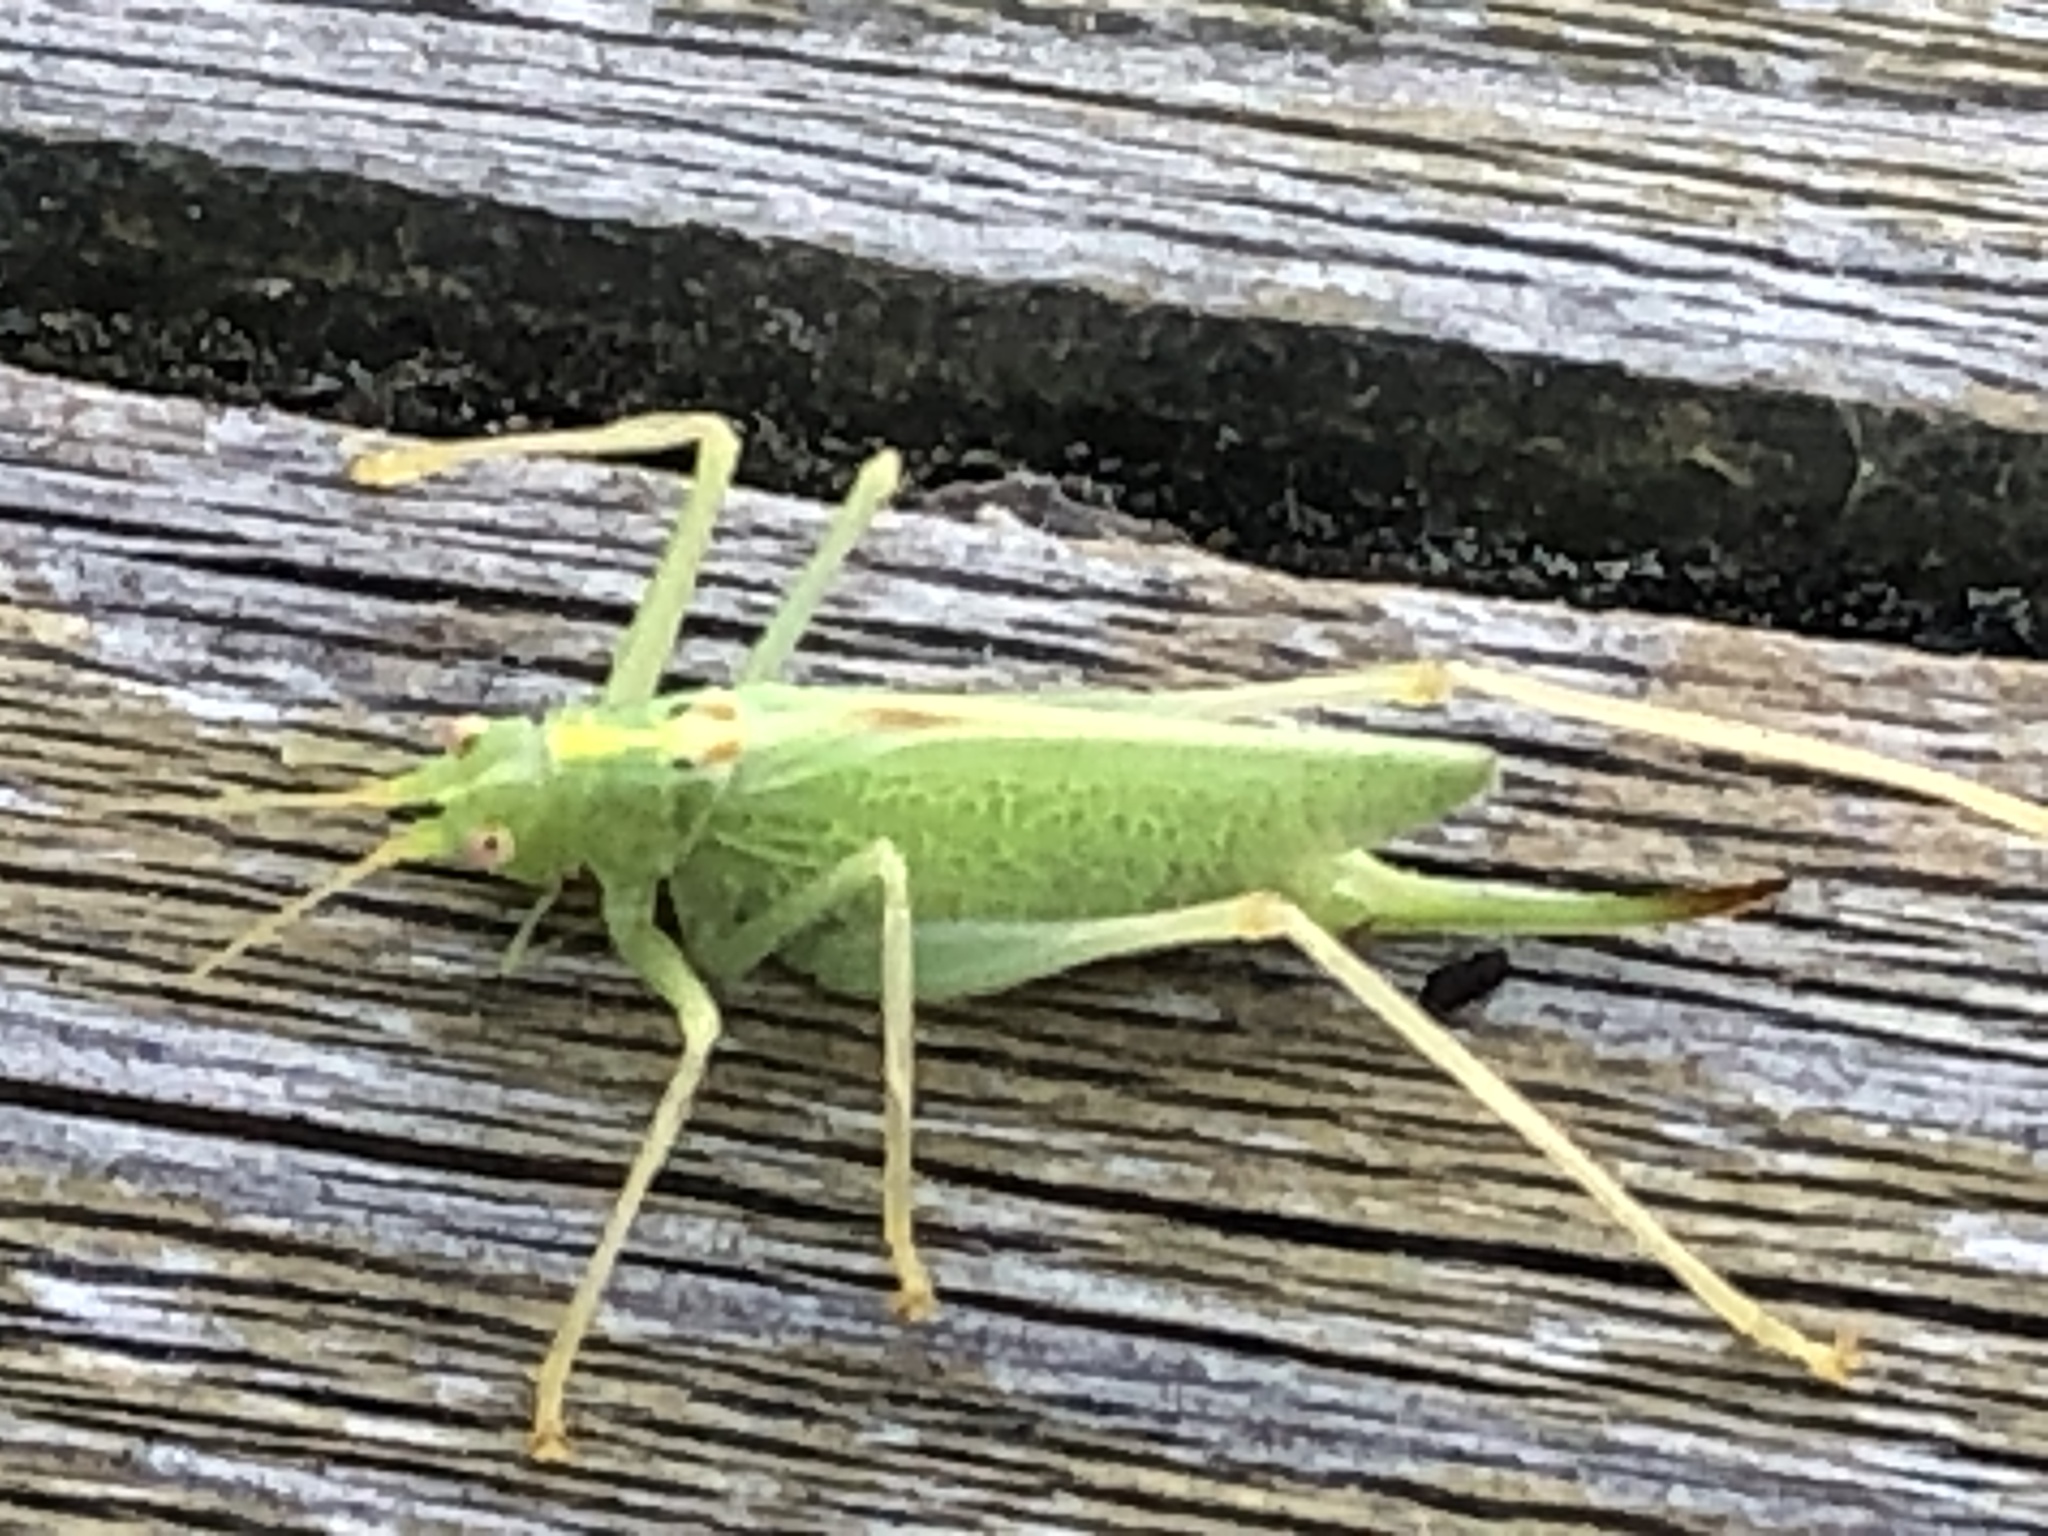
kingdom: Animalia
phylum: Arthropoda
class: Insecta
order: Orthoptera
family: Tettigoniidae
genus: Meconema
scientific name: Meconema thalassinum
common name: Oak bush-cricket
